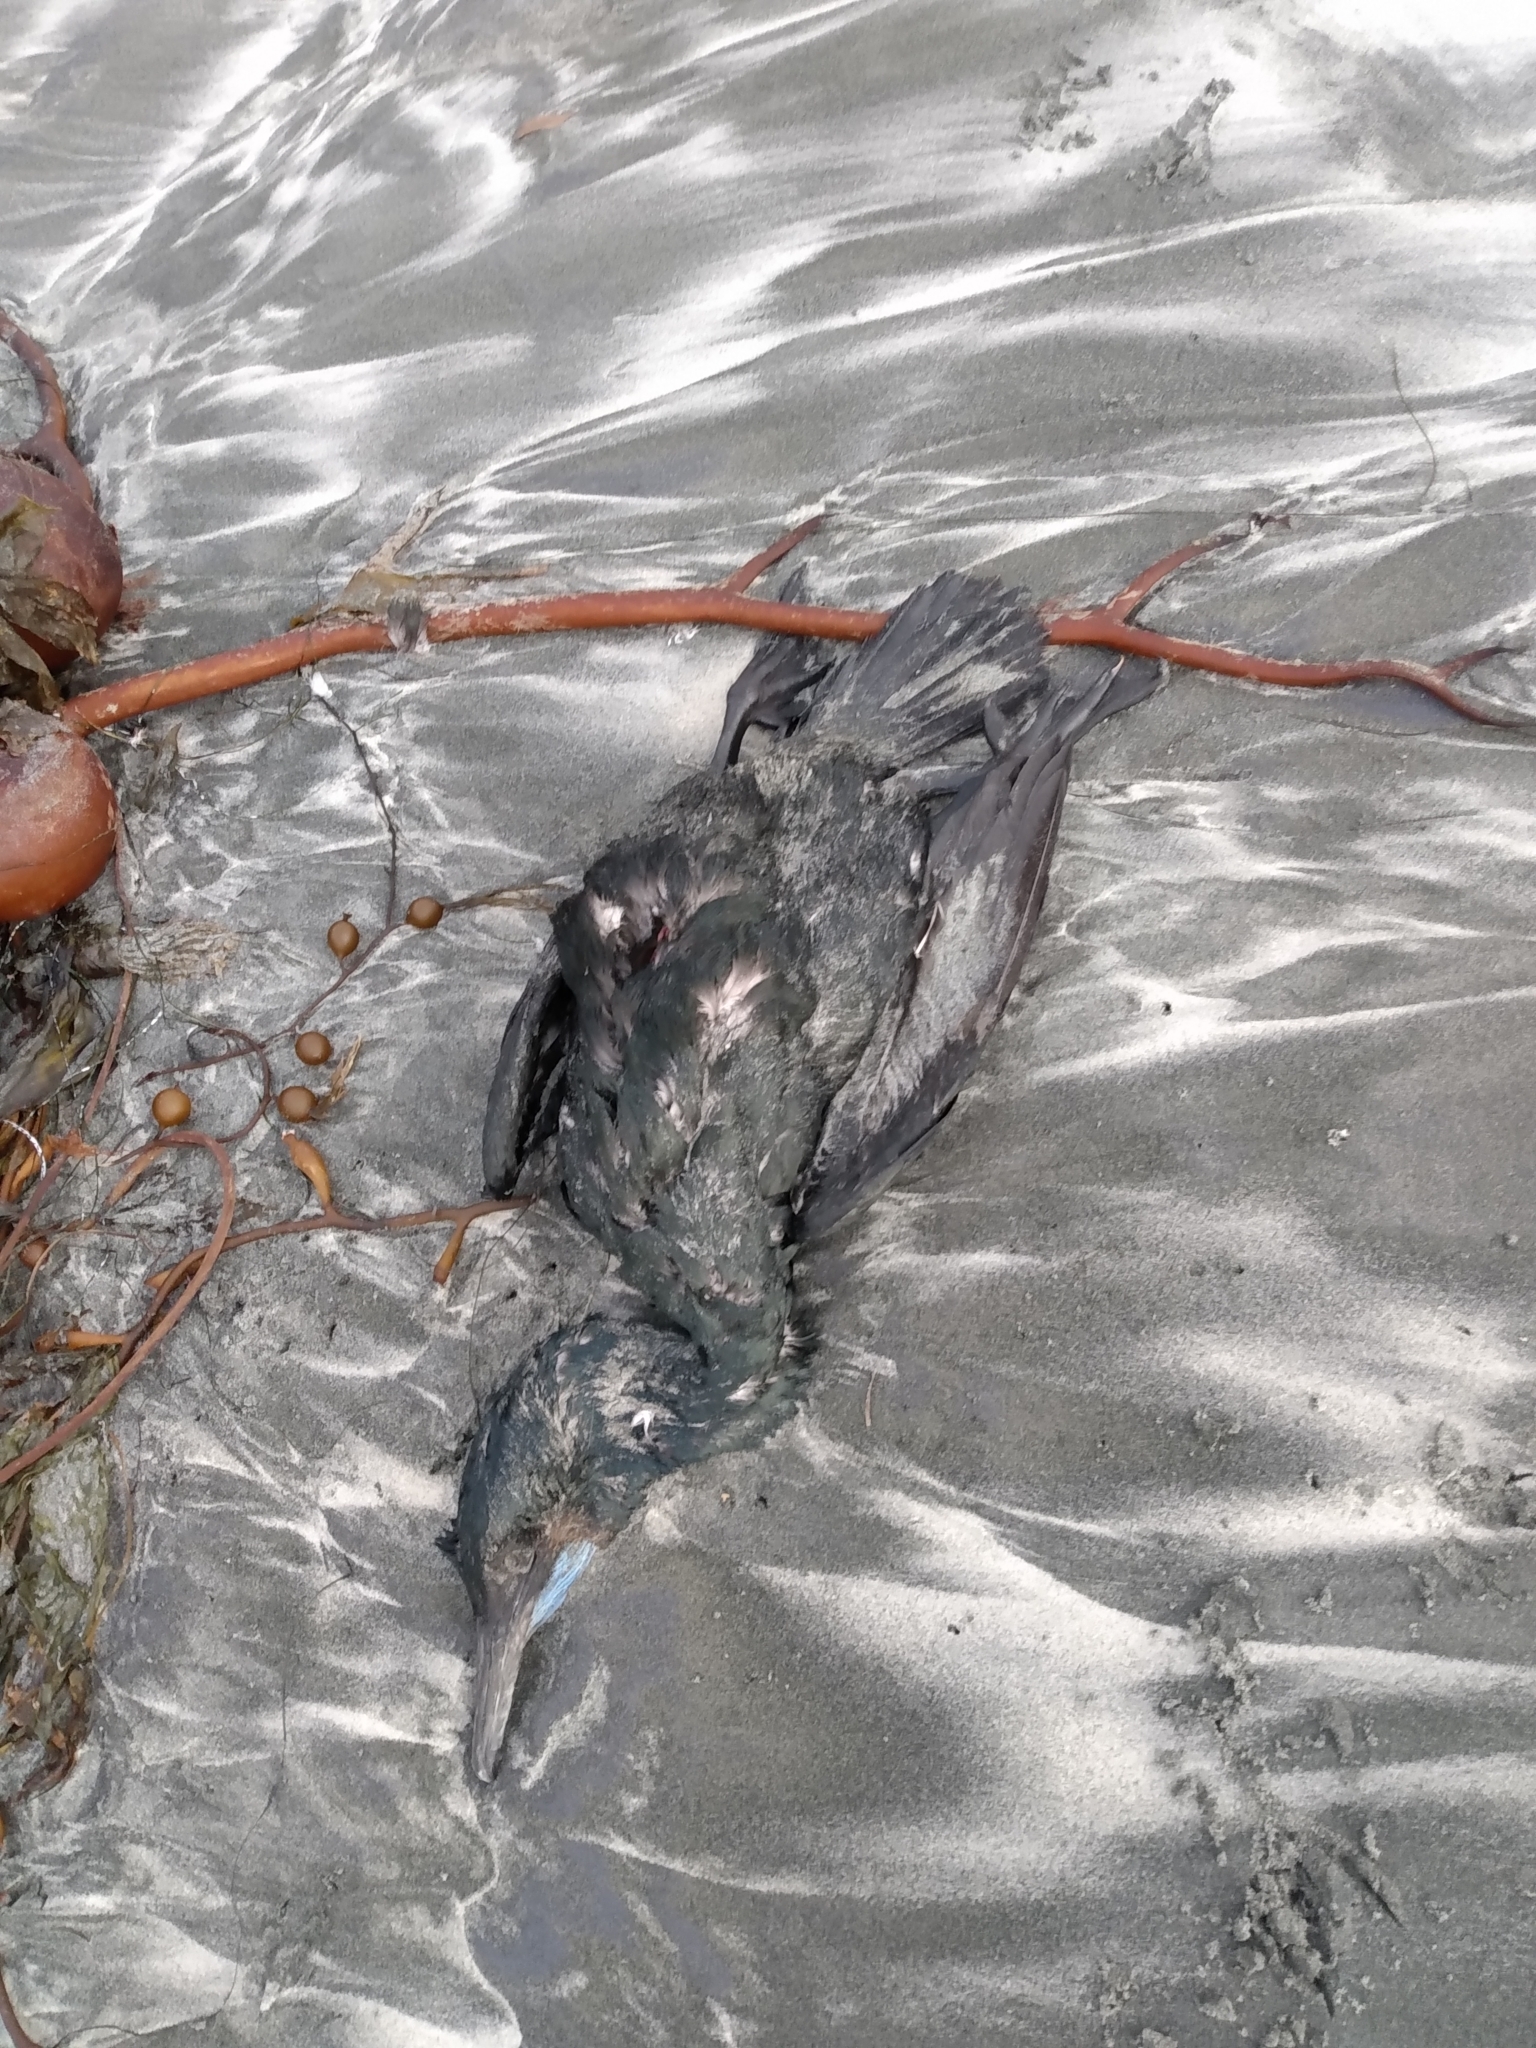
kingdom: Animalia
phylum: Chordata
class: Aves
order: Suliformes
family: Phalacrocoracidae
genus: Urile
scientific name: Urile penicillatus
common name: Brandt's cormorant
